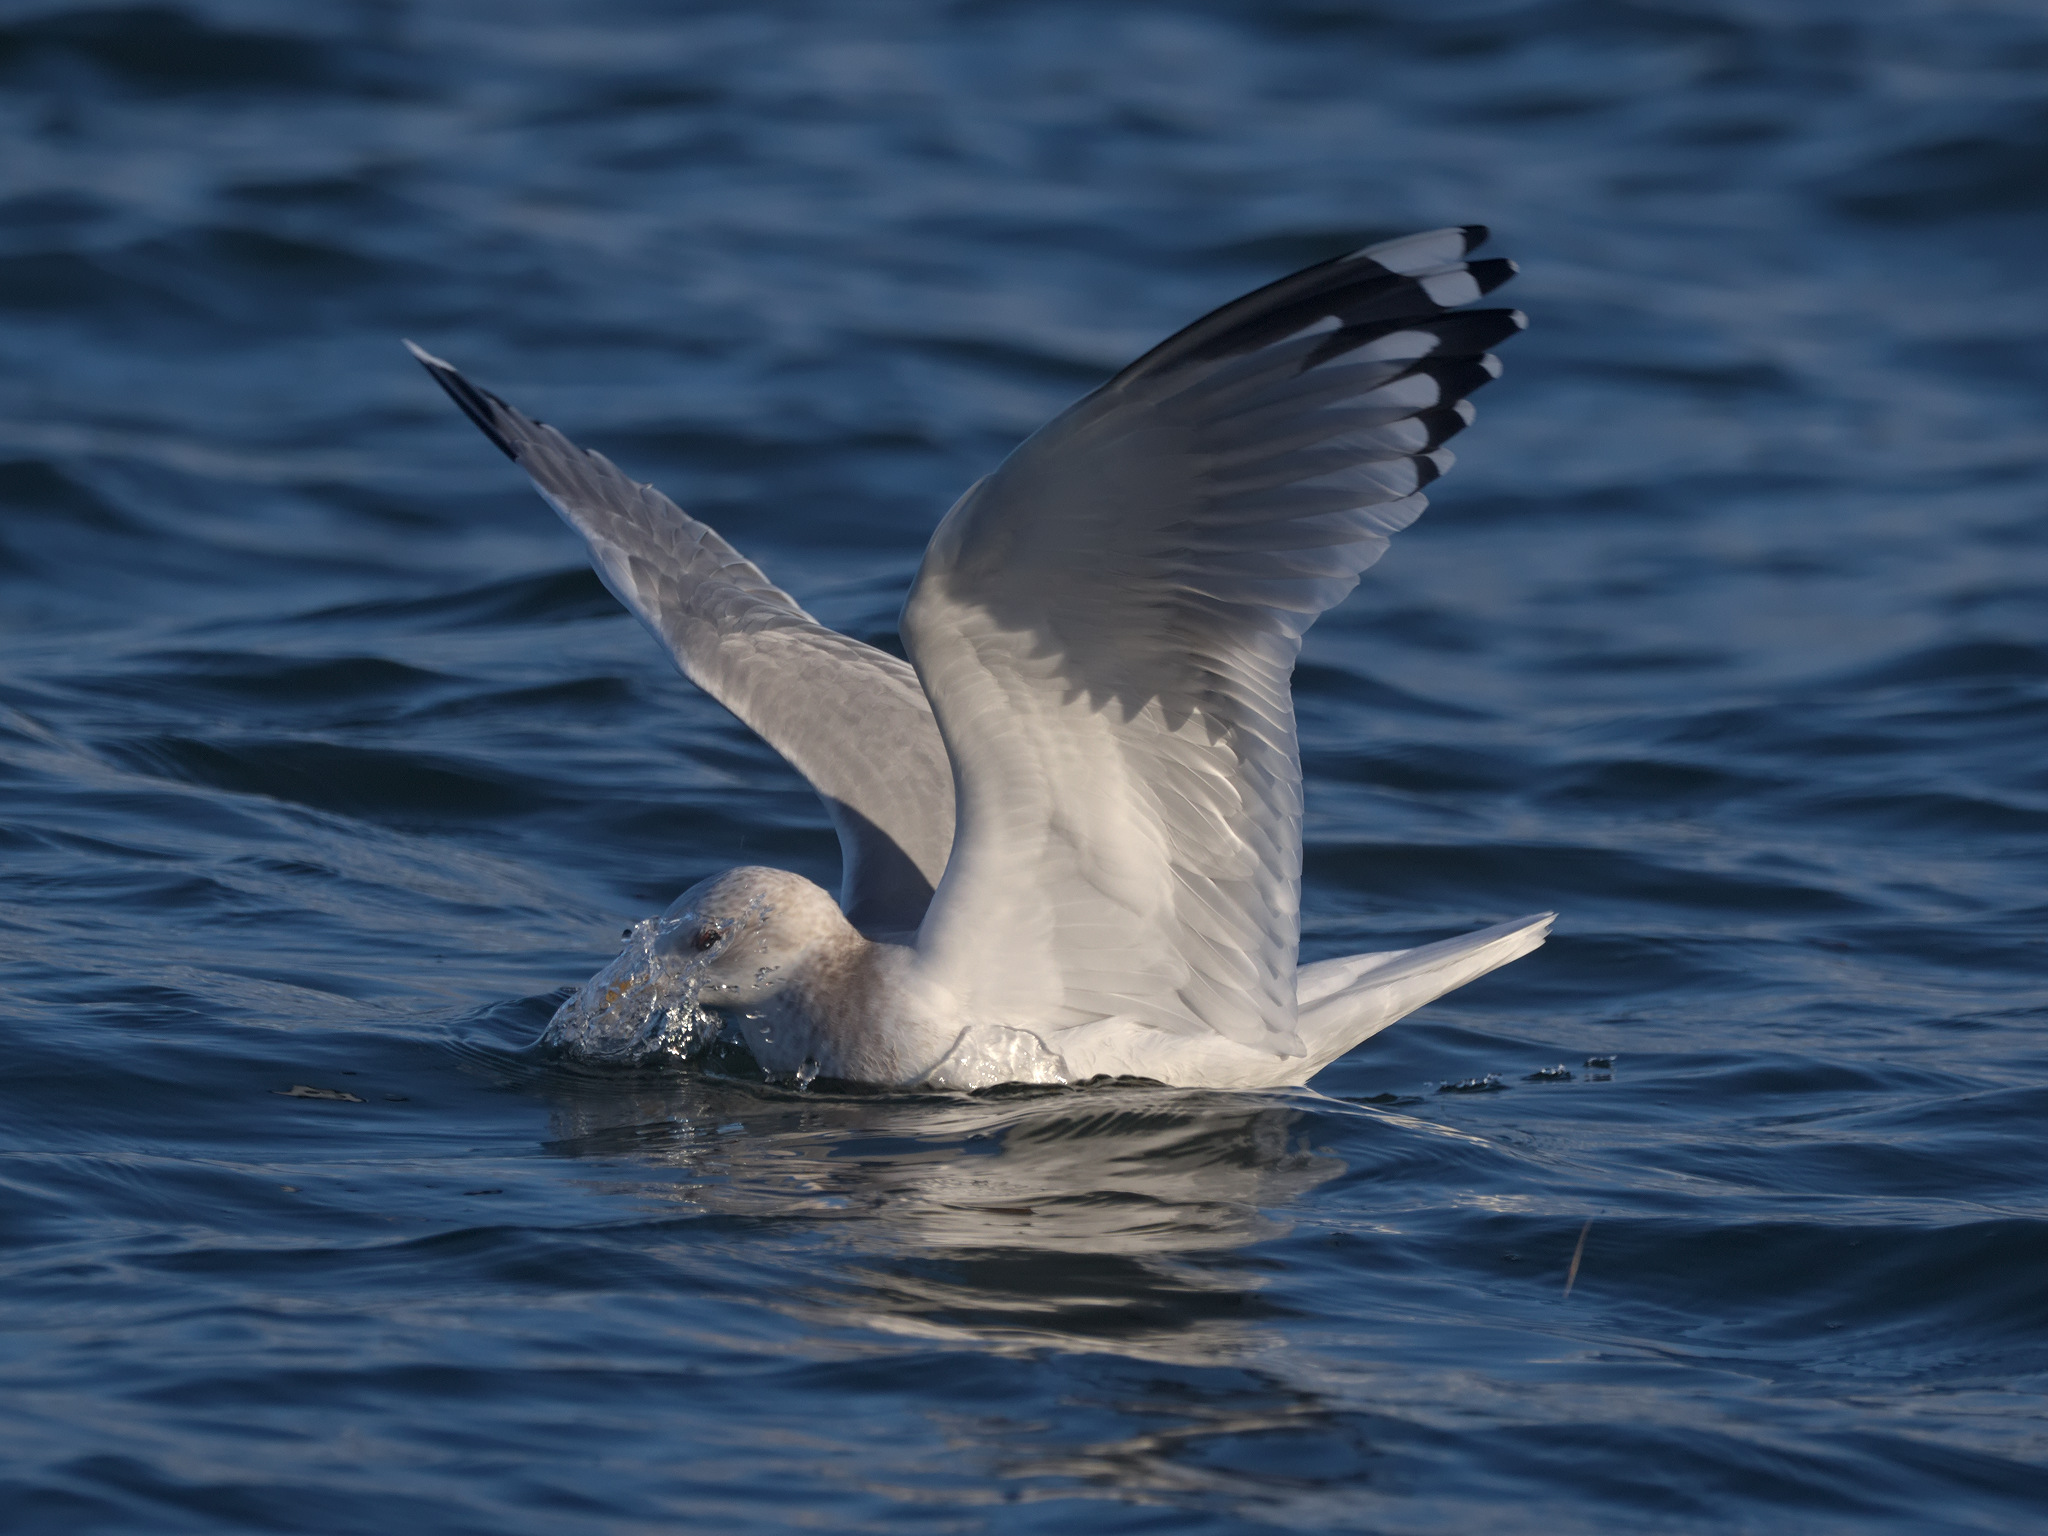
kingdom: Animalia
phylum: Chordata
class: Aves
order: Charadriiformes
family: Laridae
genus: Larus
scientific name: Larus brachyrhynchus
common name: Short-billed gull
